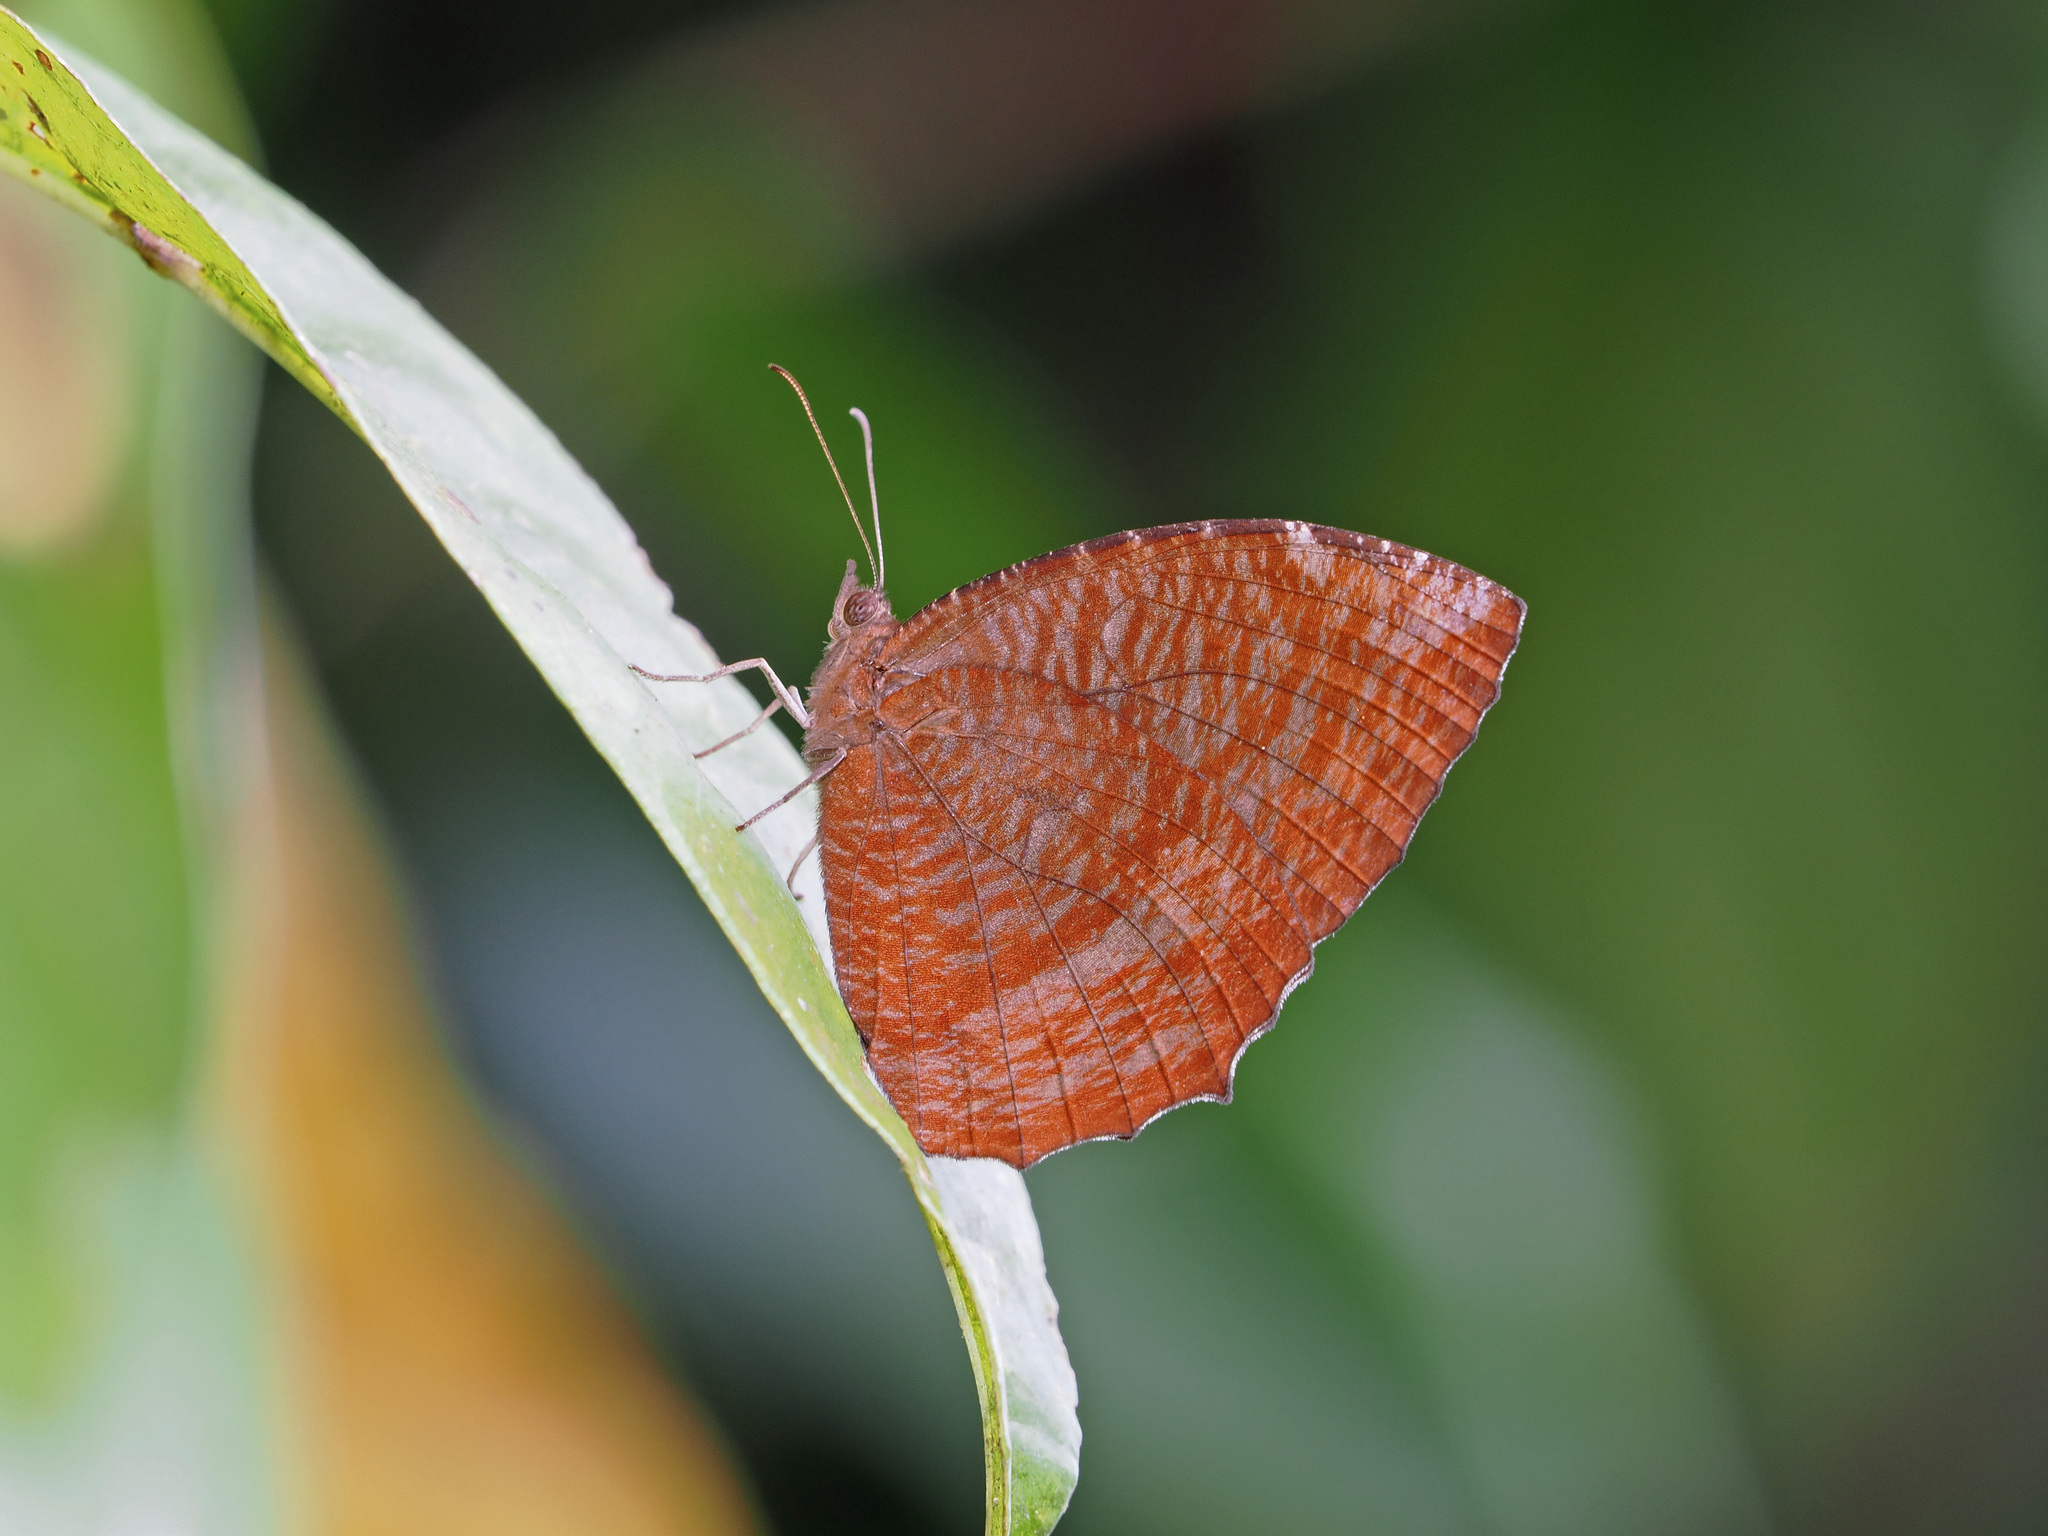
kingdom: Animalia
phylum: Arthropoda
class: Insecta
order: Lepidoptera
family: Nymphalidae
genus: Elymnias
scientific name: Elymnias hypermnestra
